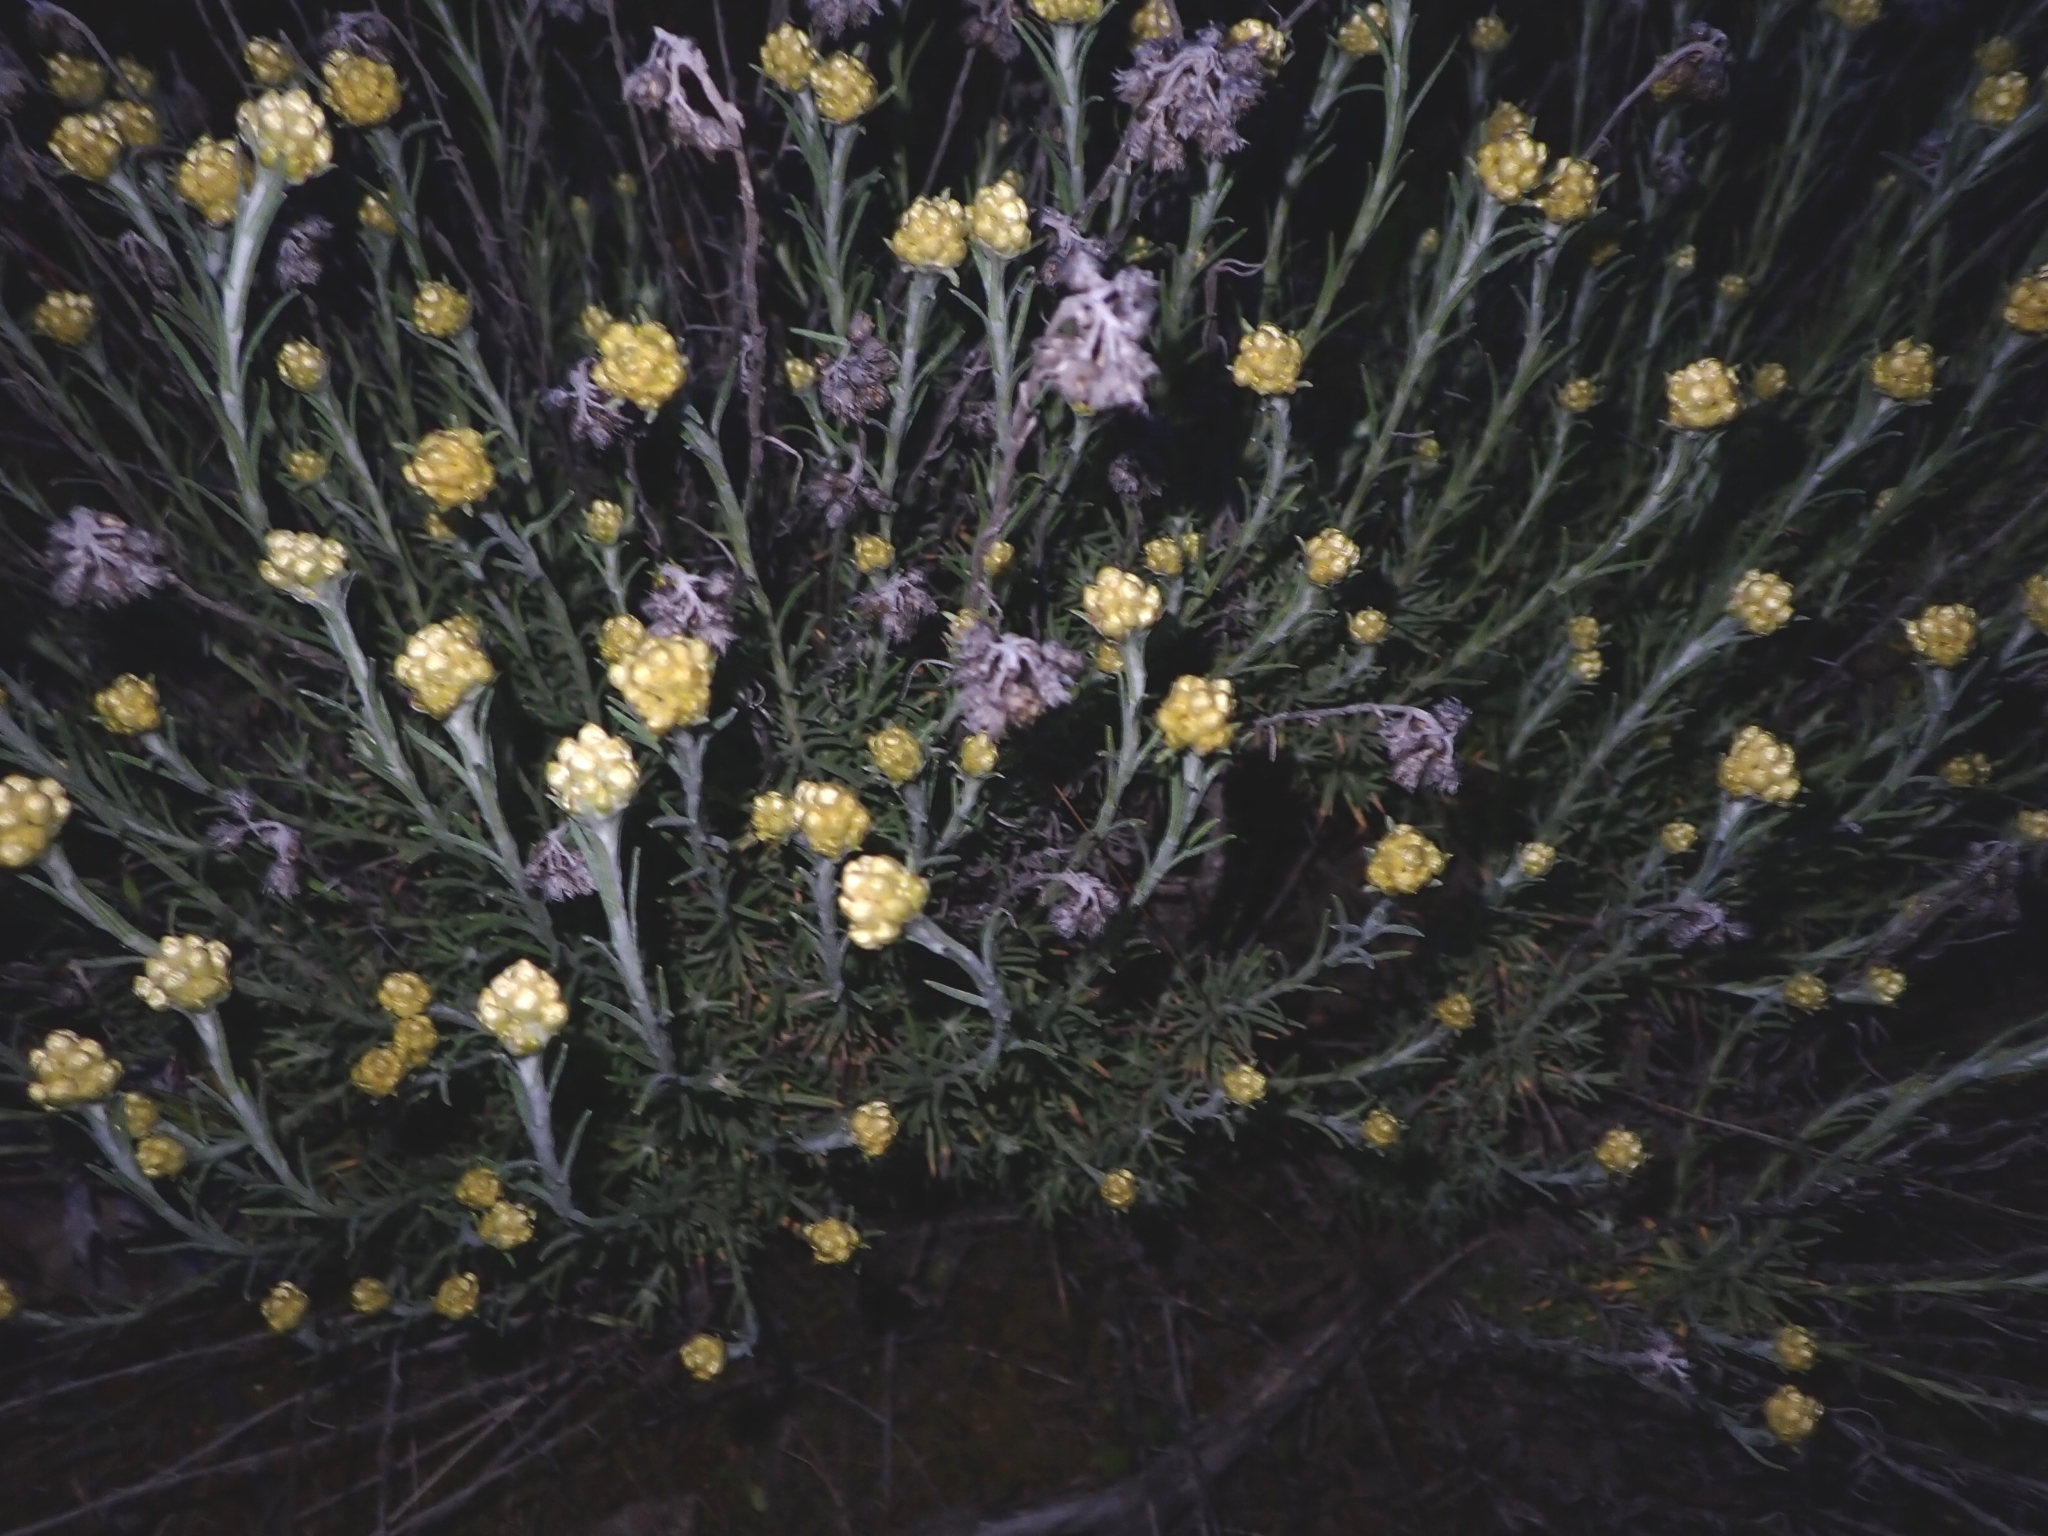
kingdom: Plantae
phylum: Tracheophyta
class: Magnoliopsida
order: Asterales
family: Asteraceae
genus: Helichrysum
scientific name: Helichrysum stoechas
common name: Goldilocks
